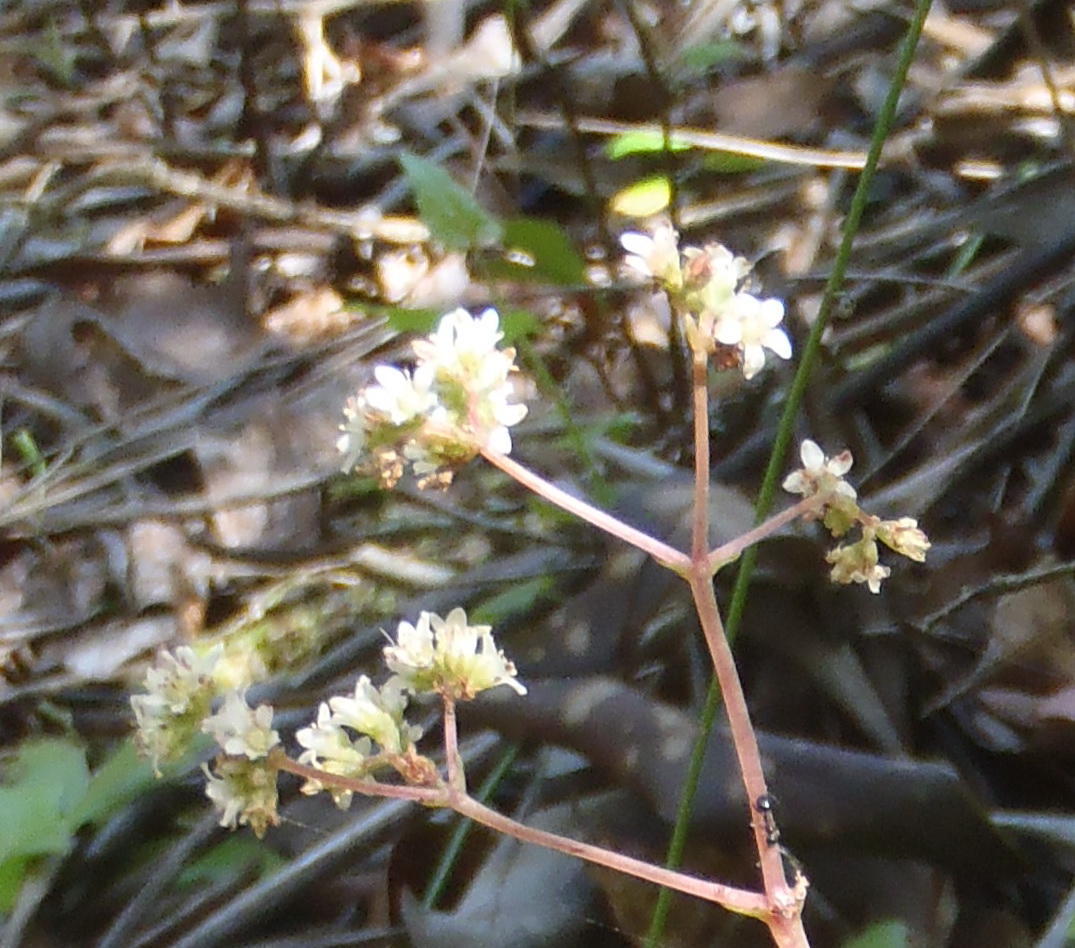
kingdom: Plantae
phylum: Tracheophyta
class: Magnoliopsida
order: Saxifragales
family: Crassulaceae
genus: Crassula
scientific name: Crassula orbicularis
